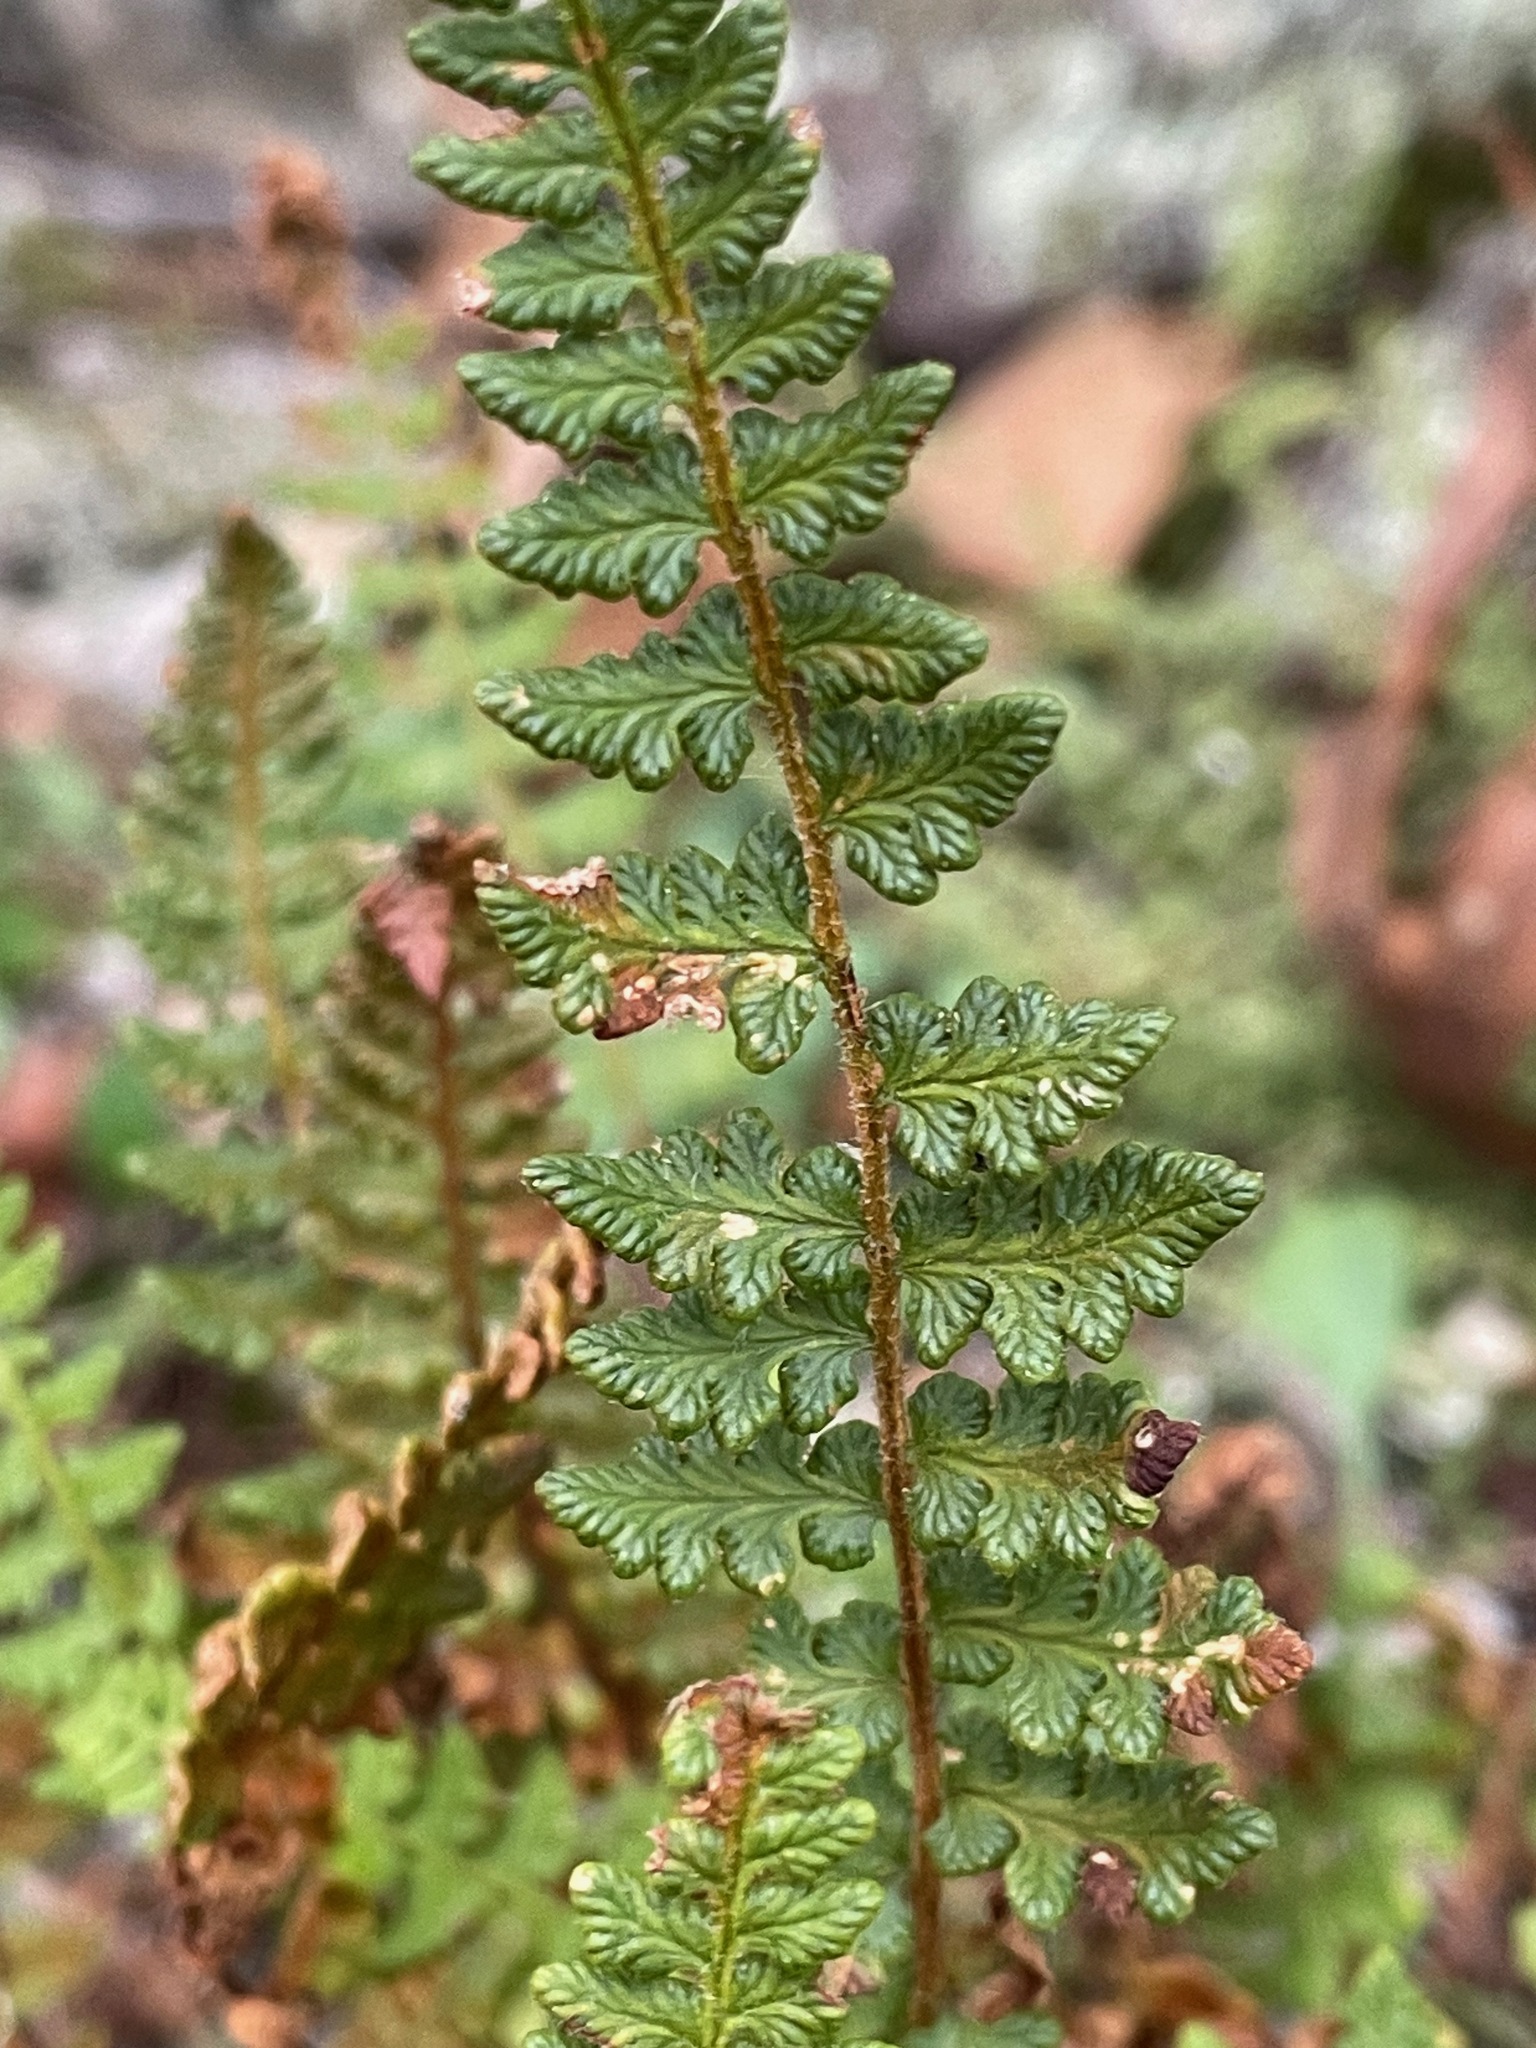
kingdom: Plantae
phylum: Tracheophyta
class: Polypodiopsida
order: Polypodiales
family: Woodsiaceae
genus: Woodsia
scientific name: Woodsia ilvensis
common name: Fragrant woodsia
